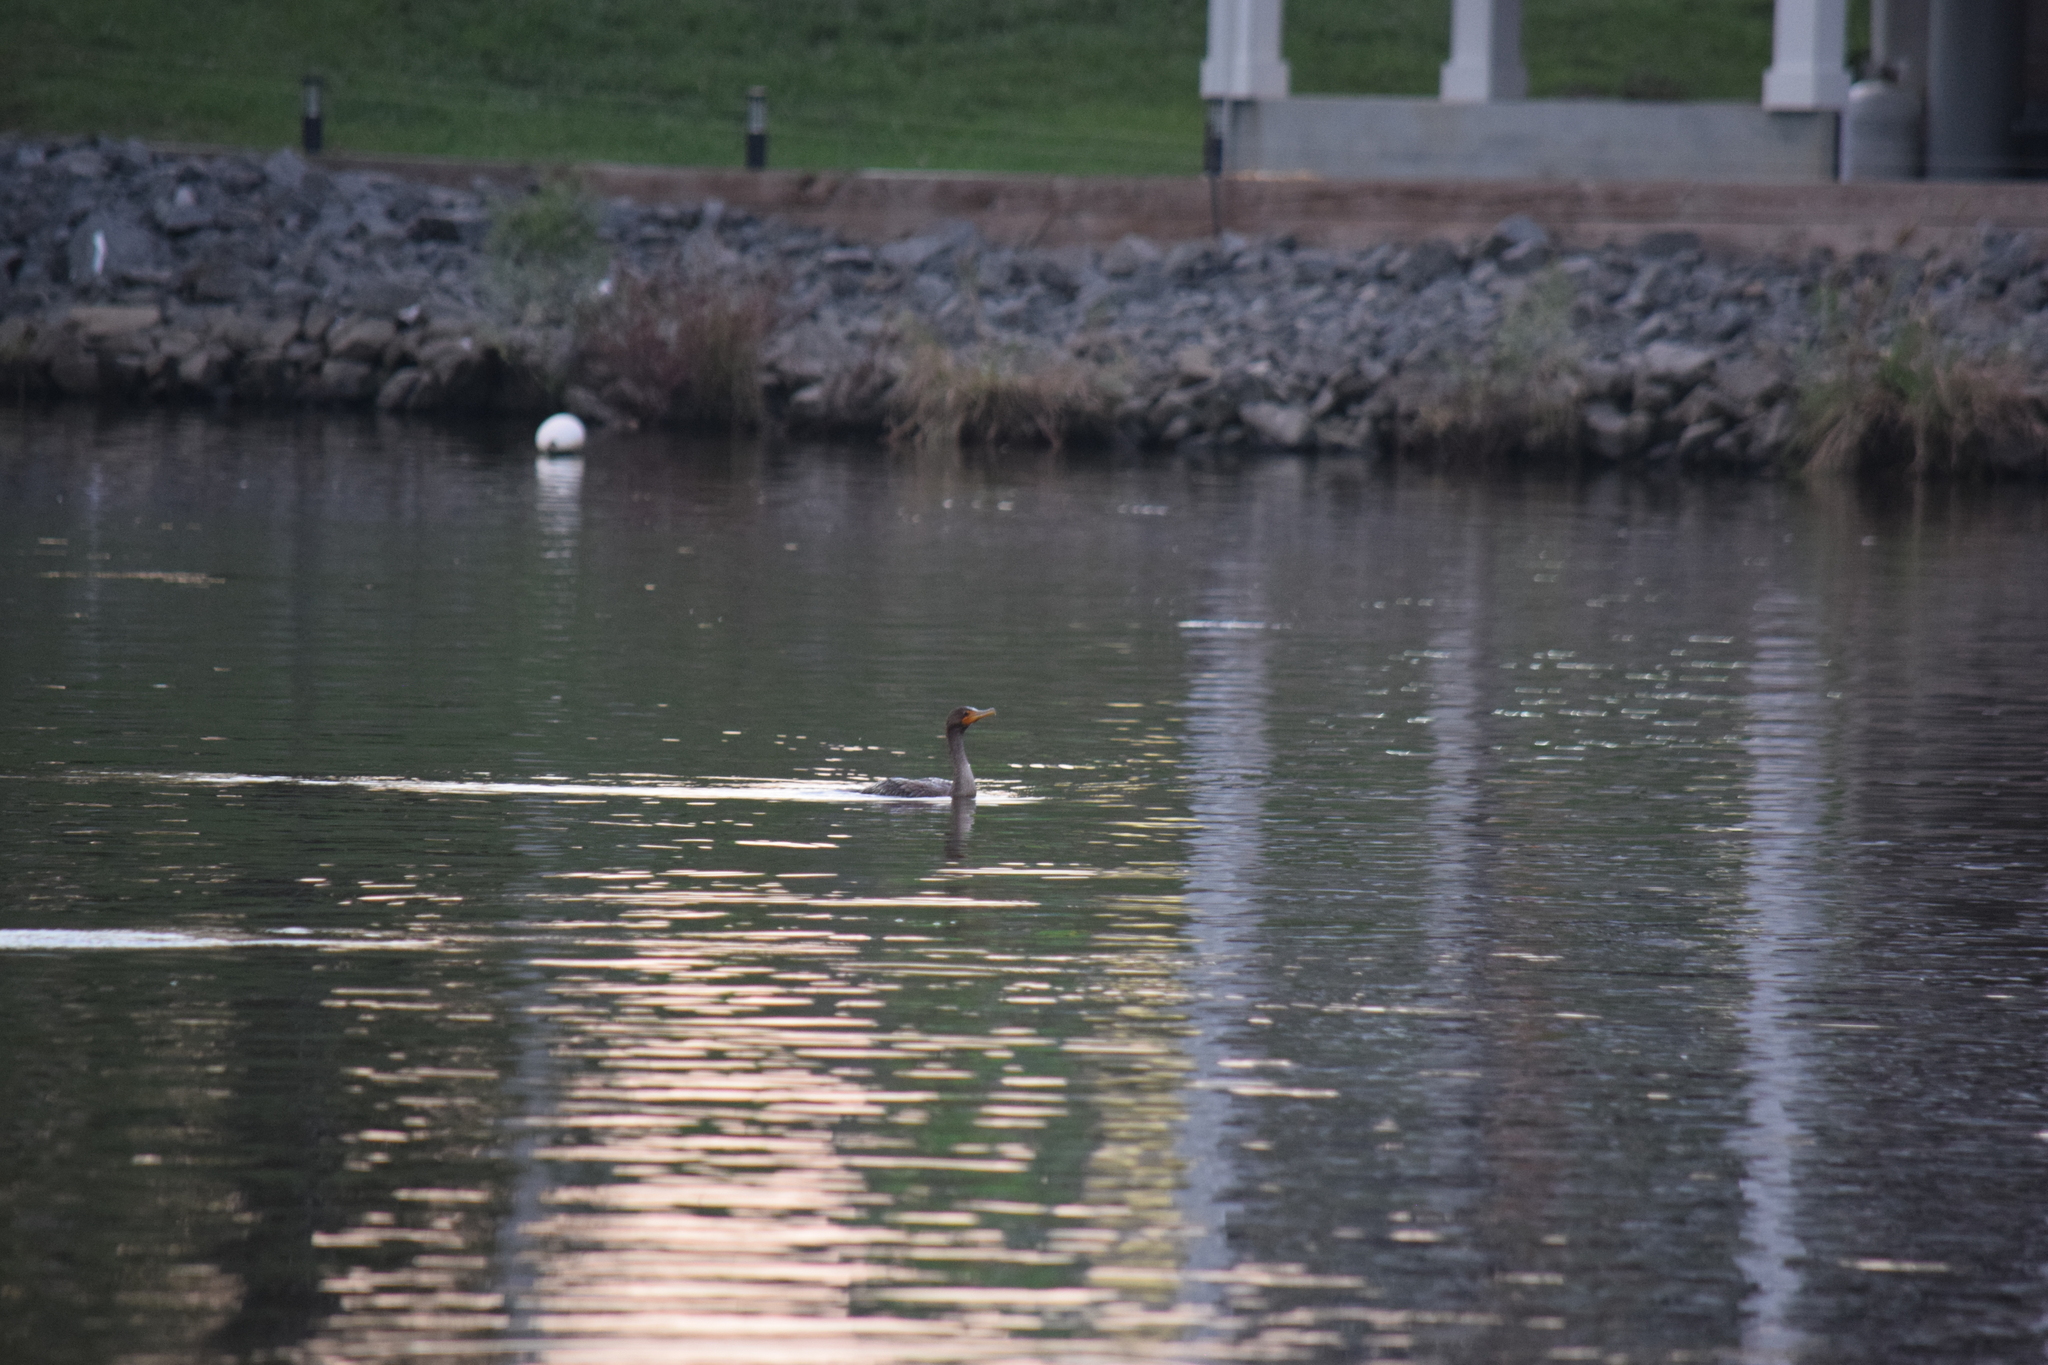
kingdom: Animalia
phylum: Chordata
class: Aves
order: Suliformes
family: Phalacrocoracidae
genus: Phalacrocorax
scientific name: Phalacrocorax auritus
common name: Double-crested cormorant
